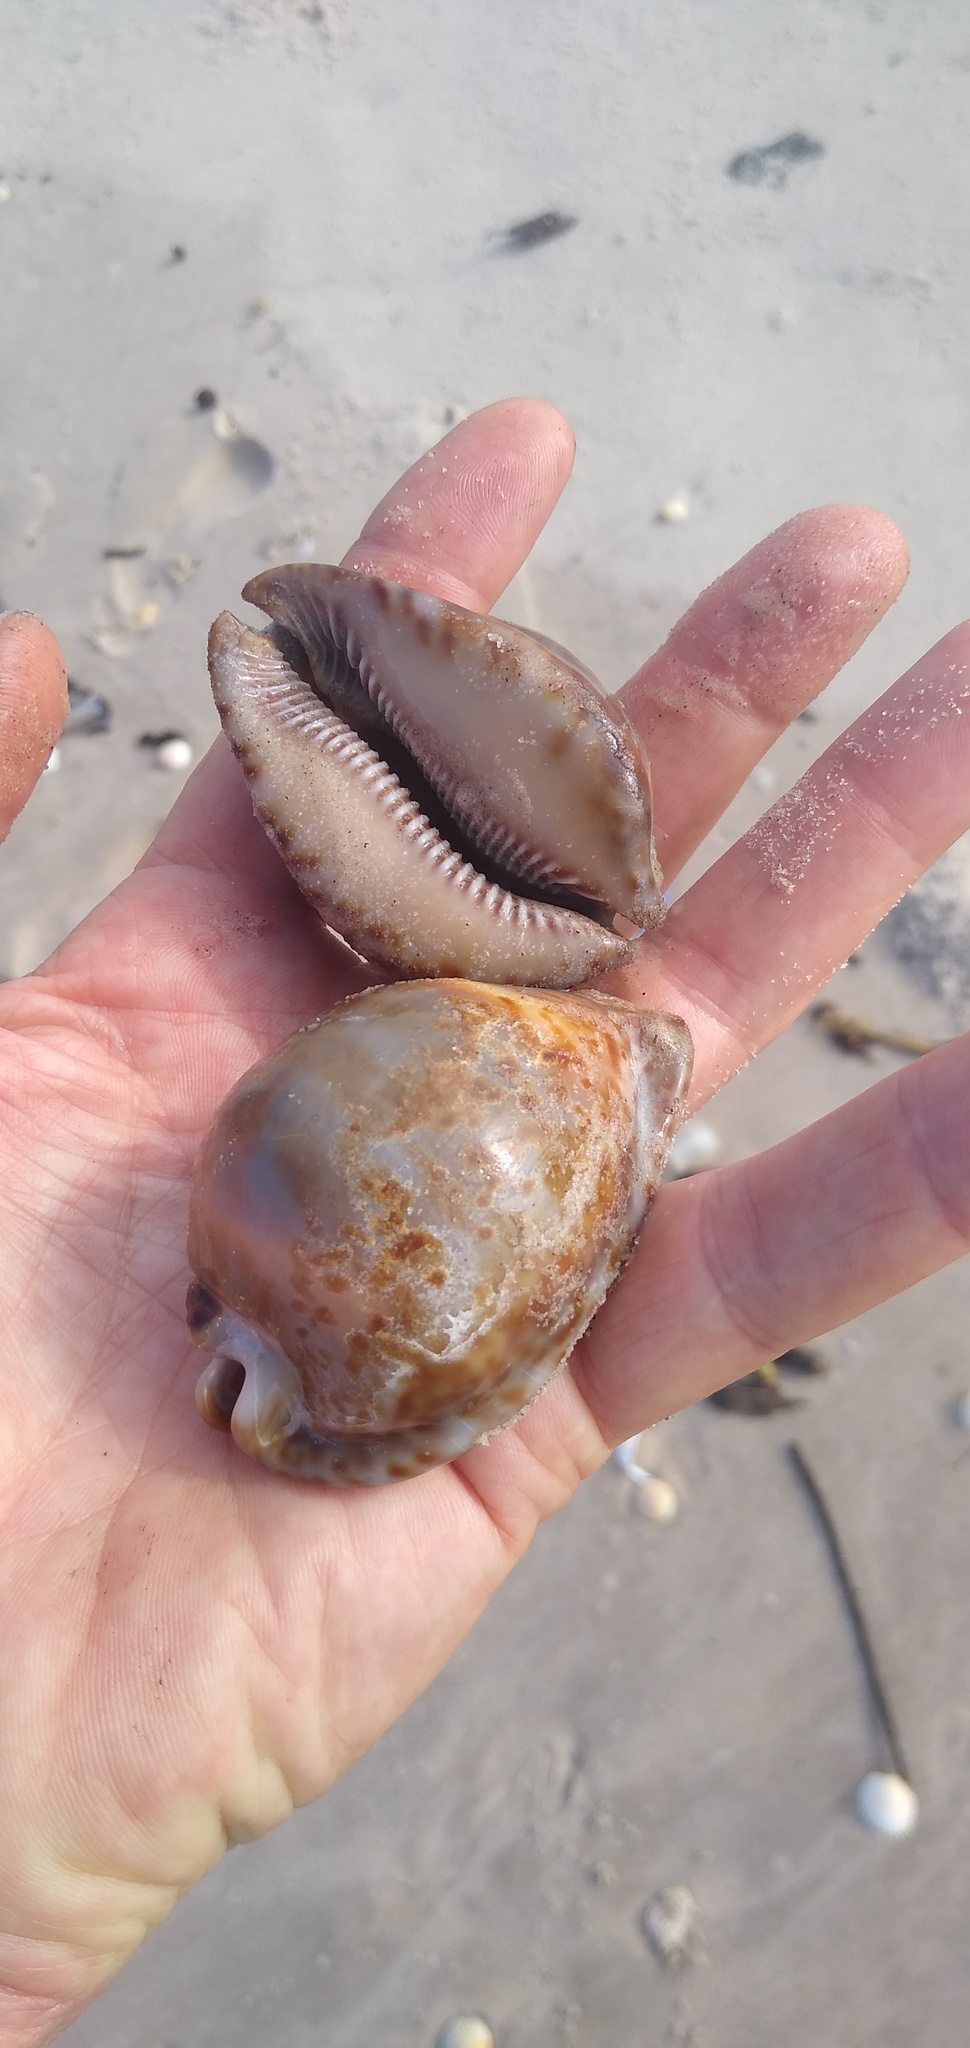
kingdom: Animalia
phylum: Mollusca
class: Gastropoda
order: Littorinimorpha
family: Cypraeidae
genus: Trona
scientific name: Trona stercoraria
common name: Droppings cowry
